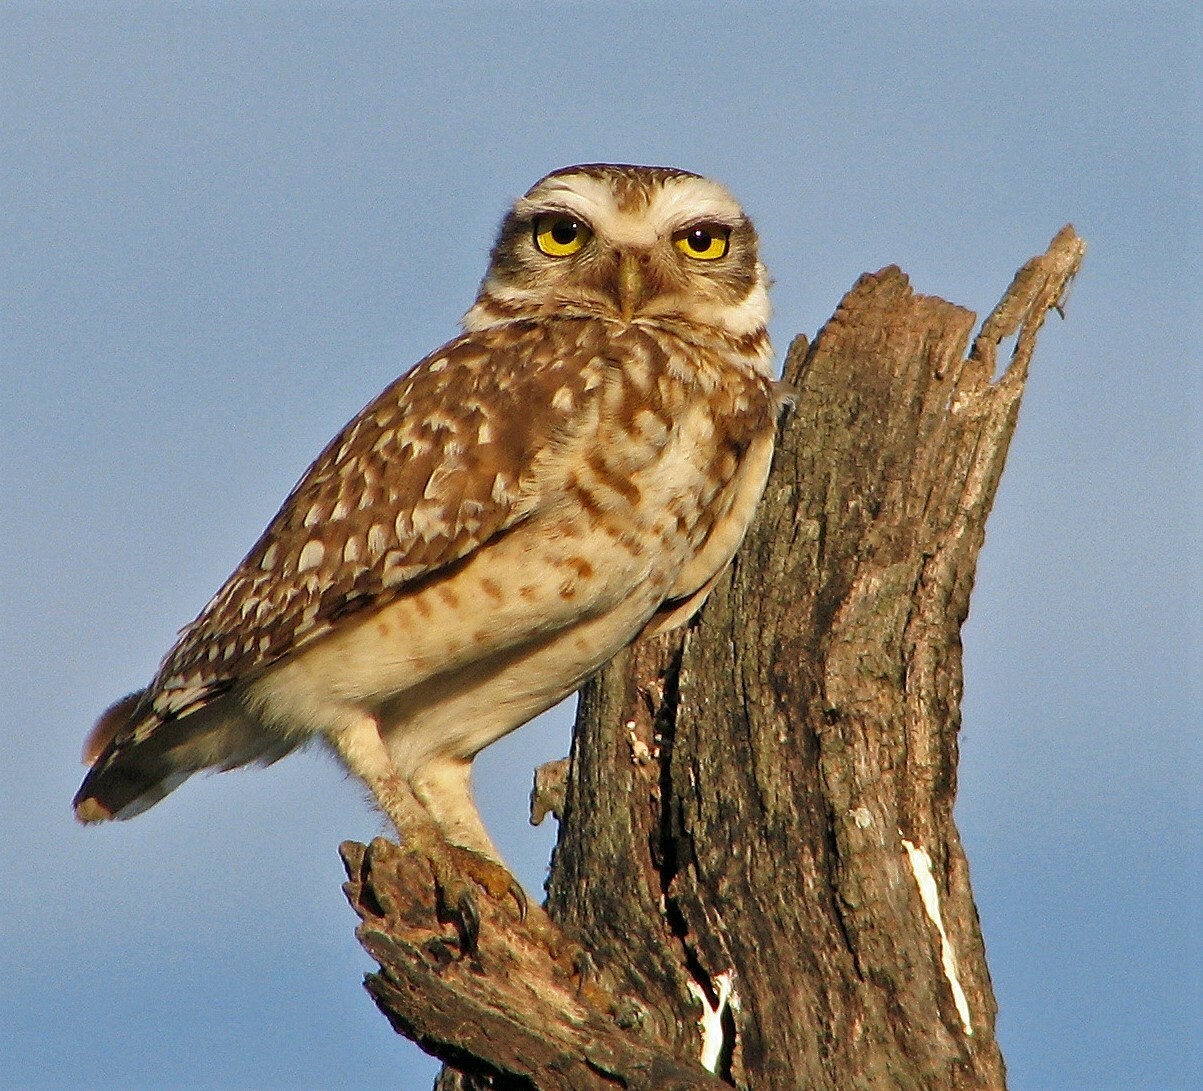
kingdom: Animalia
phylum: Chordata
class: Aves
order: Strigiformes
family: Strigidae
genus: Athene
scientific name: Athene cunicularia
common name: Burrowing owl
